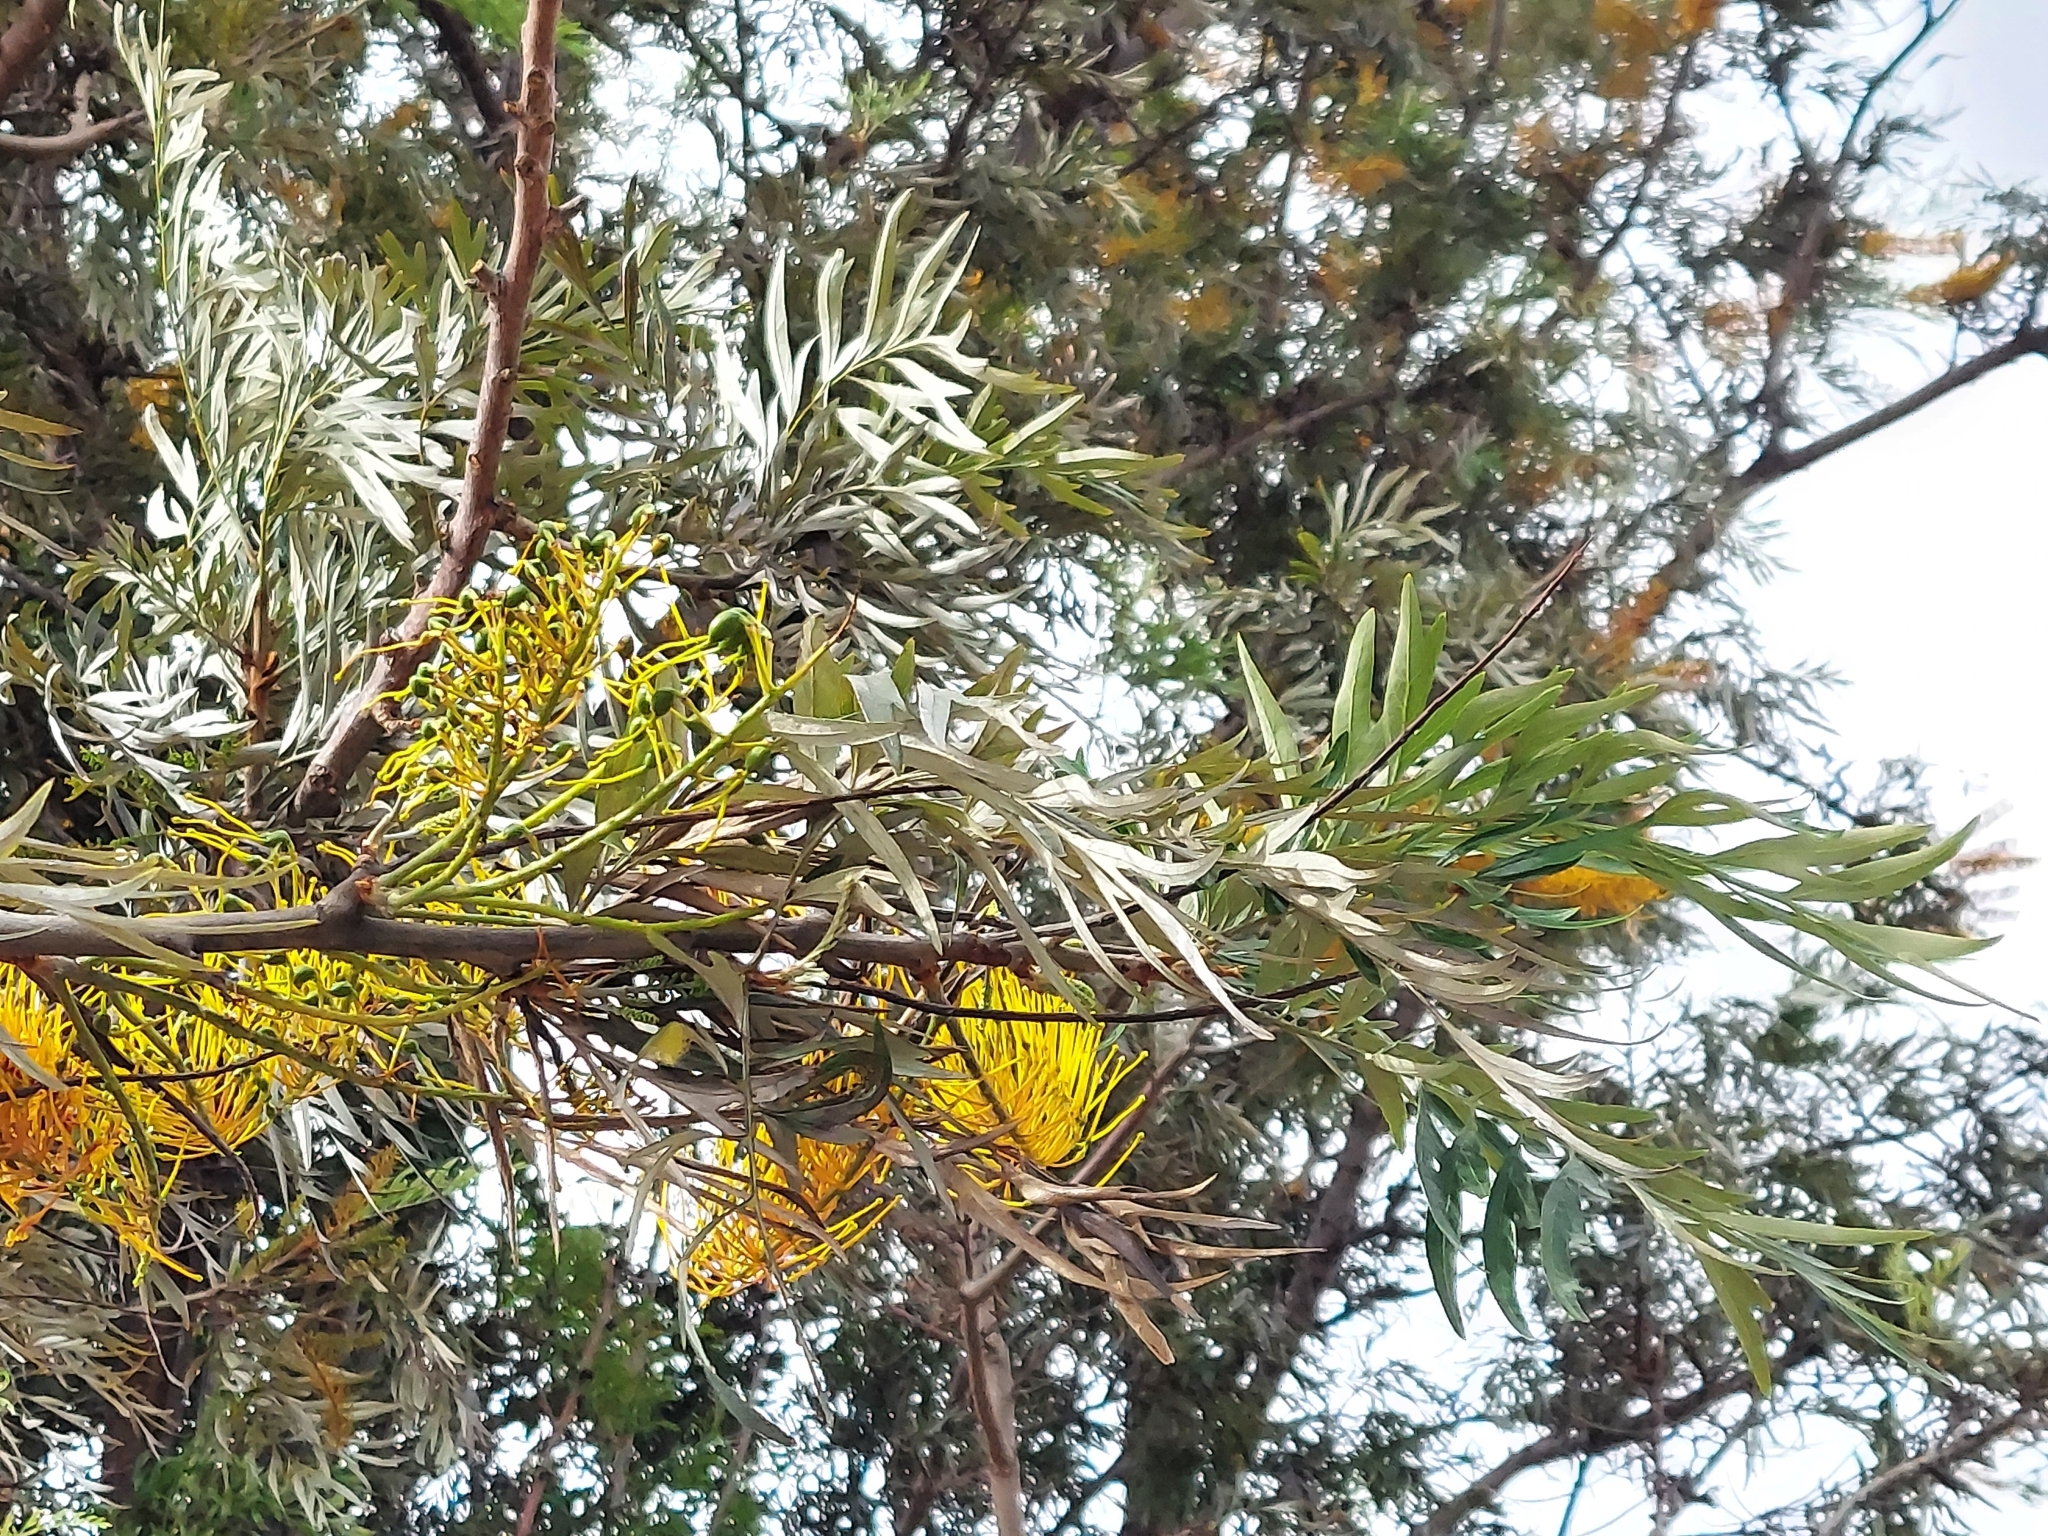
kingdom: Plantae
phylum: Tracheophyta
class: Magnoliopsida
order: Proteales
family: Proteaceae
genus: Grevillea
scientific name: Grevillea robusta
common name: Silkoak
